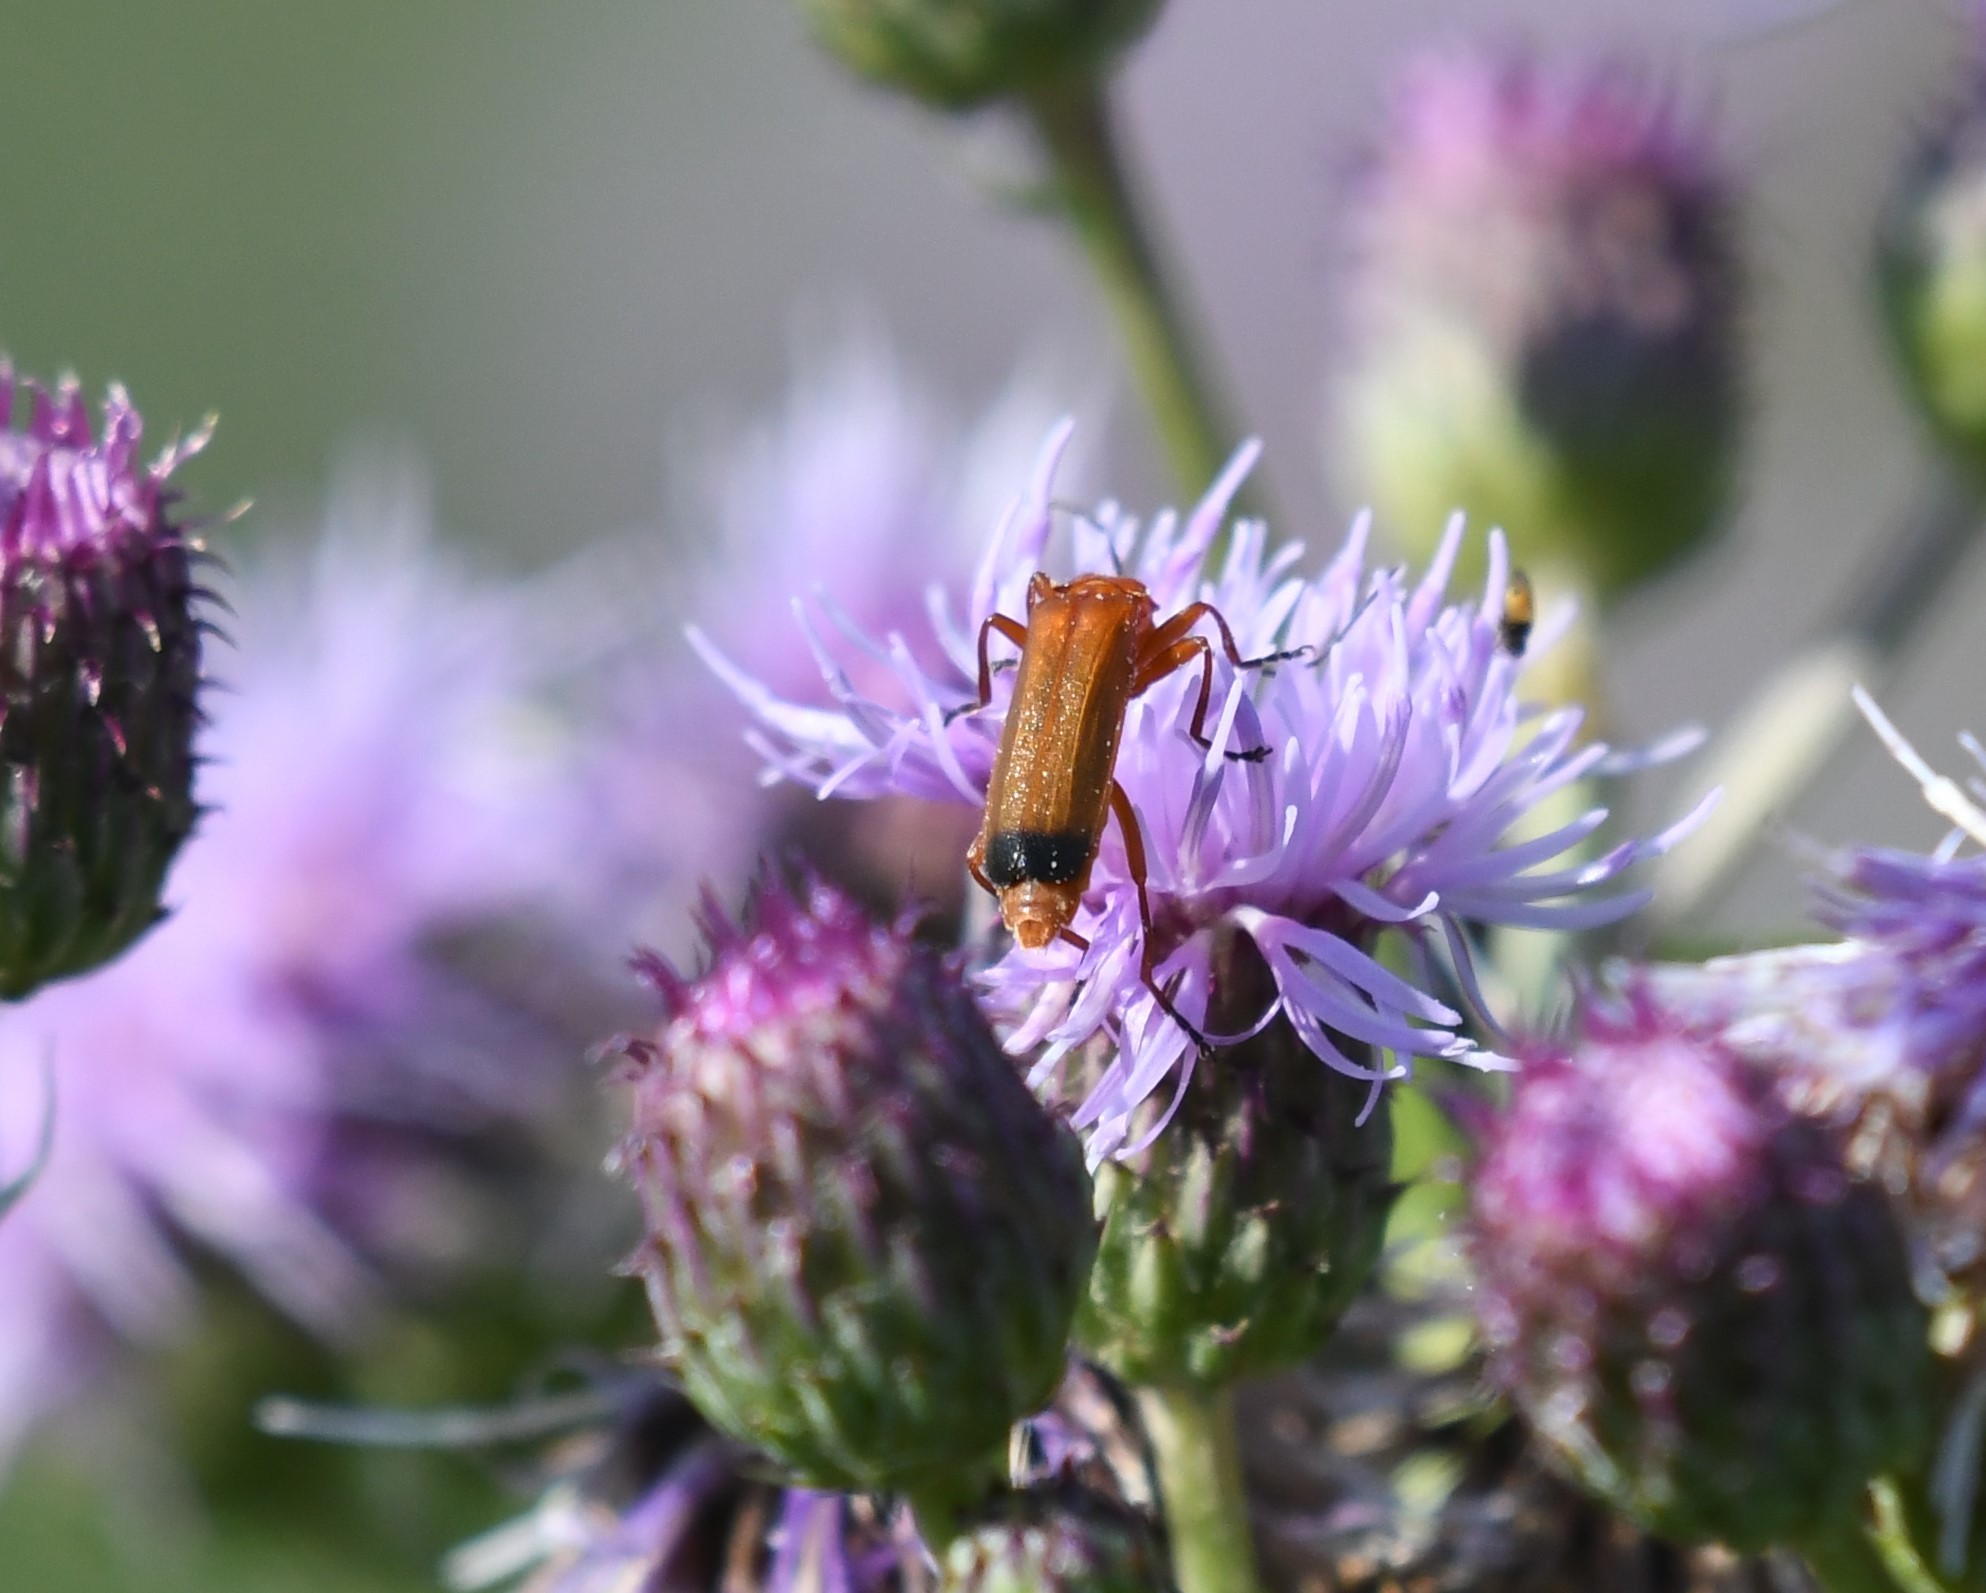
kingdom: Animalia
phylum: Arthropoda
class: Insecta
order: Coleoptera
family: Cantharidae
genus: Rhagonycha
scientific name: Rhagonycha fulva
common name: Common red soldier beetle
